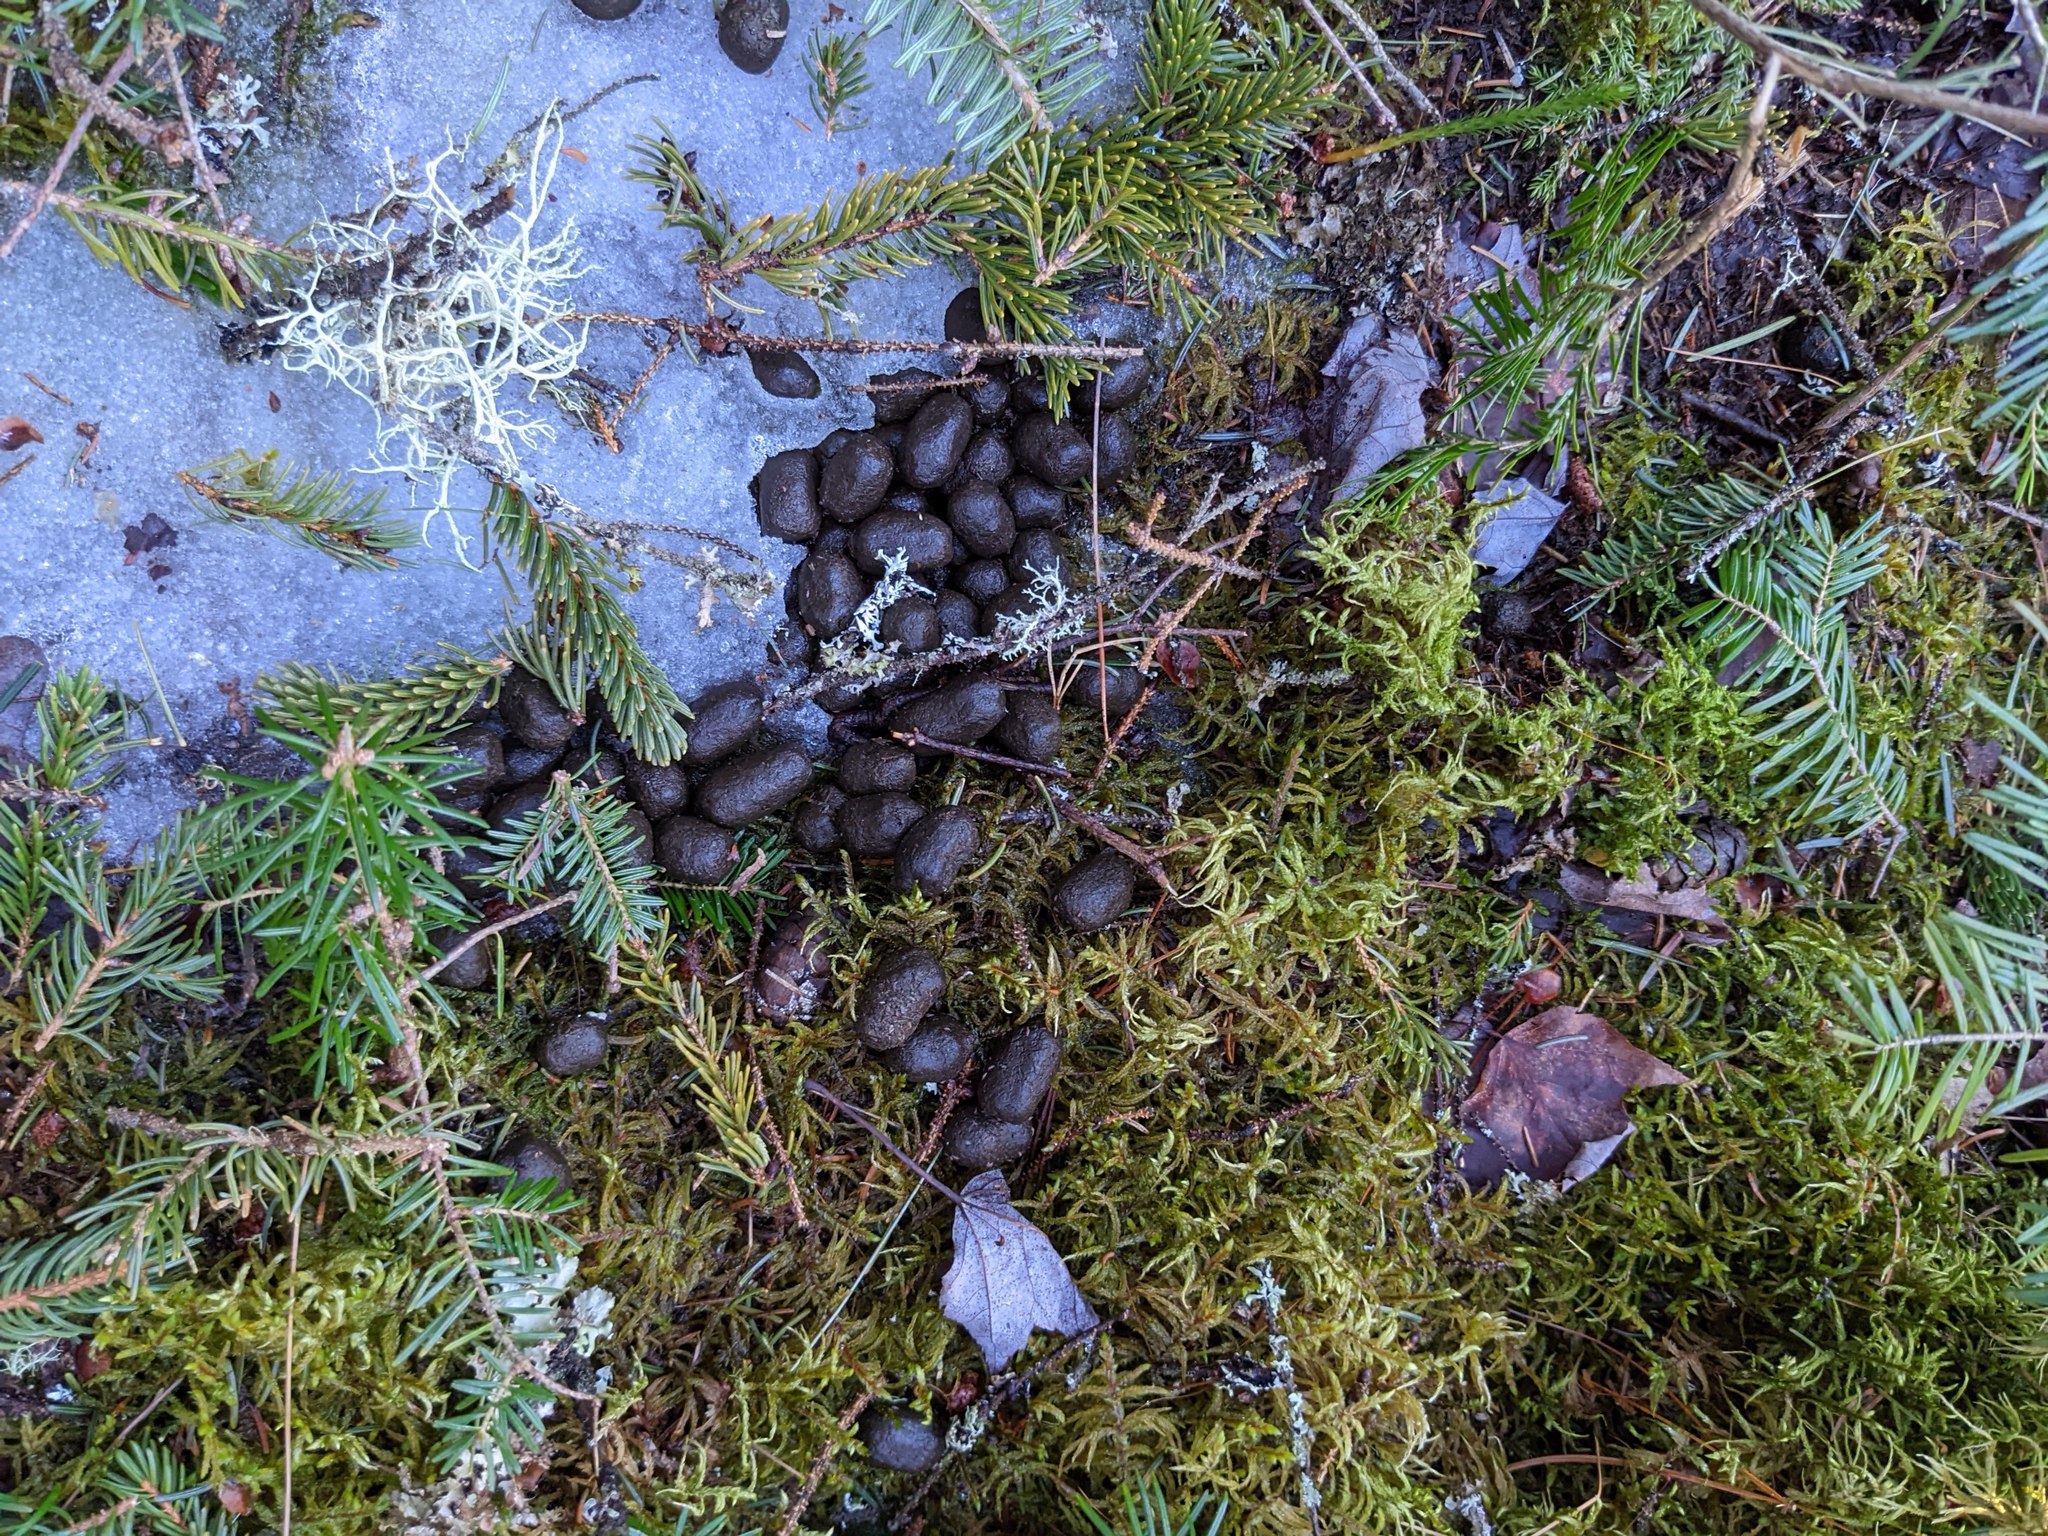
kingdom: Animalia
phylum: Chordata
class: Mammalia
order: Artiodactyla
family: Cervidae
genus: Odocoileus
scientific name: Odocoileus virginianus
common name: White-tailed deer
